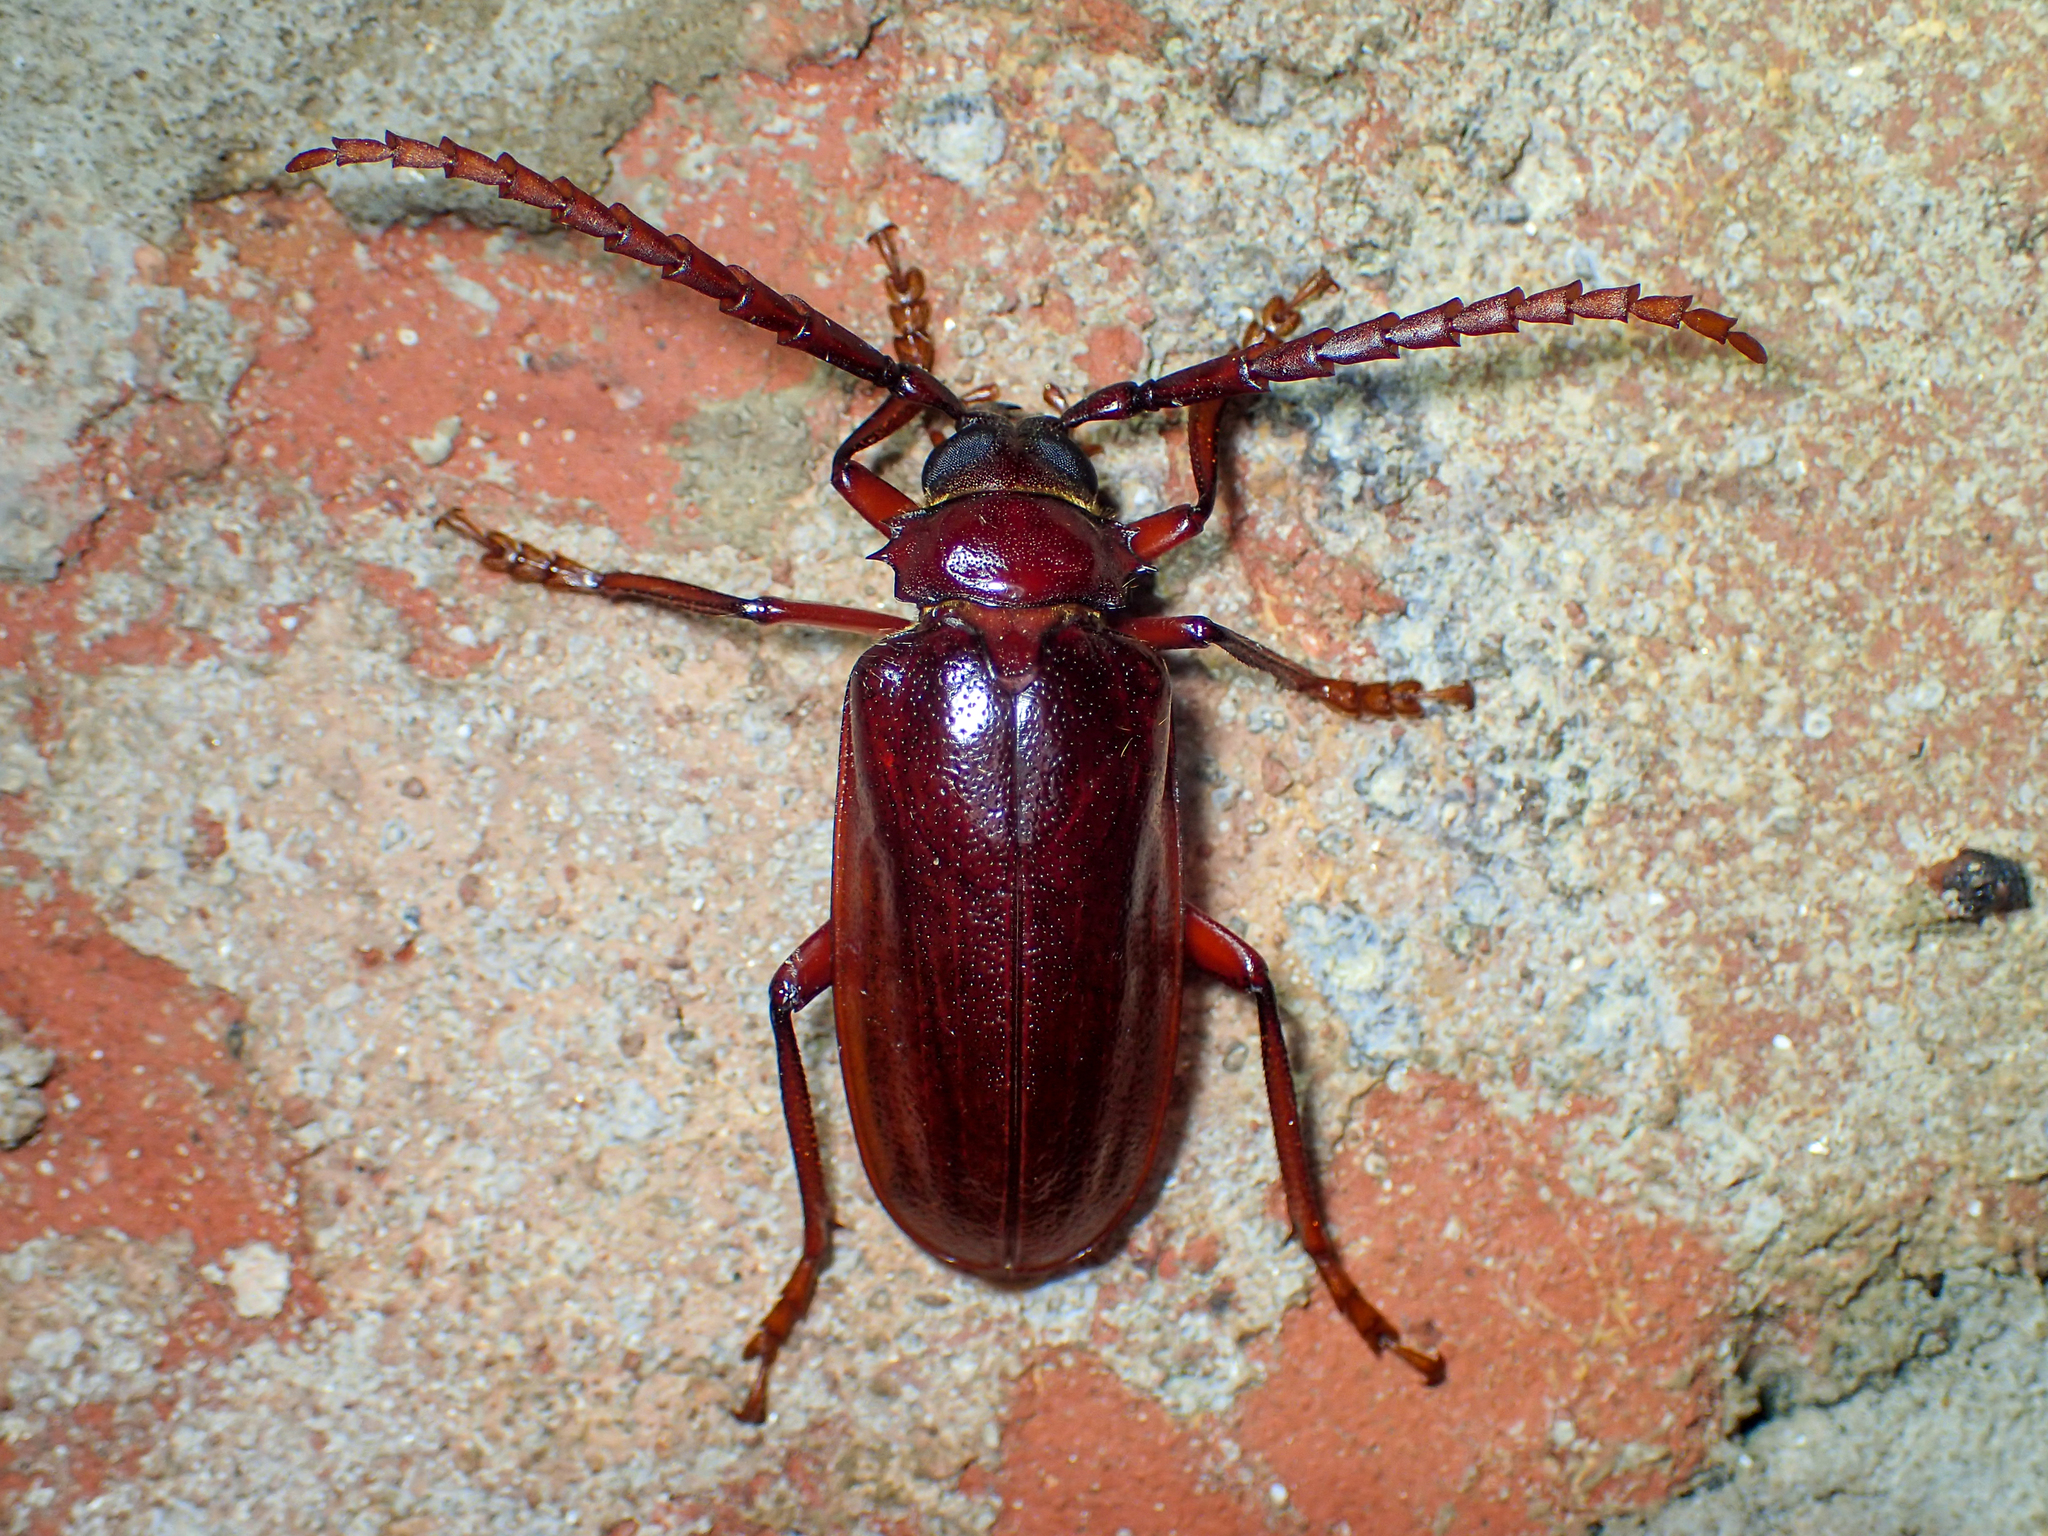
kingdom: Animalia
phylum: Arthropoda
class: Insecta
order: Coleoptera
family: Cerambycidae
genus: Prionus
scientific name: Prionus pocularis
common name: Tooth-necked longhorn beetle
